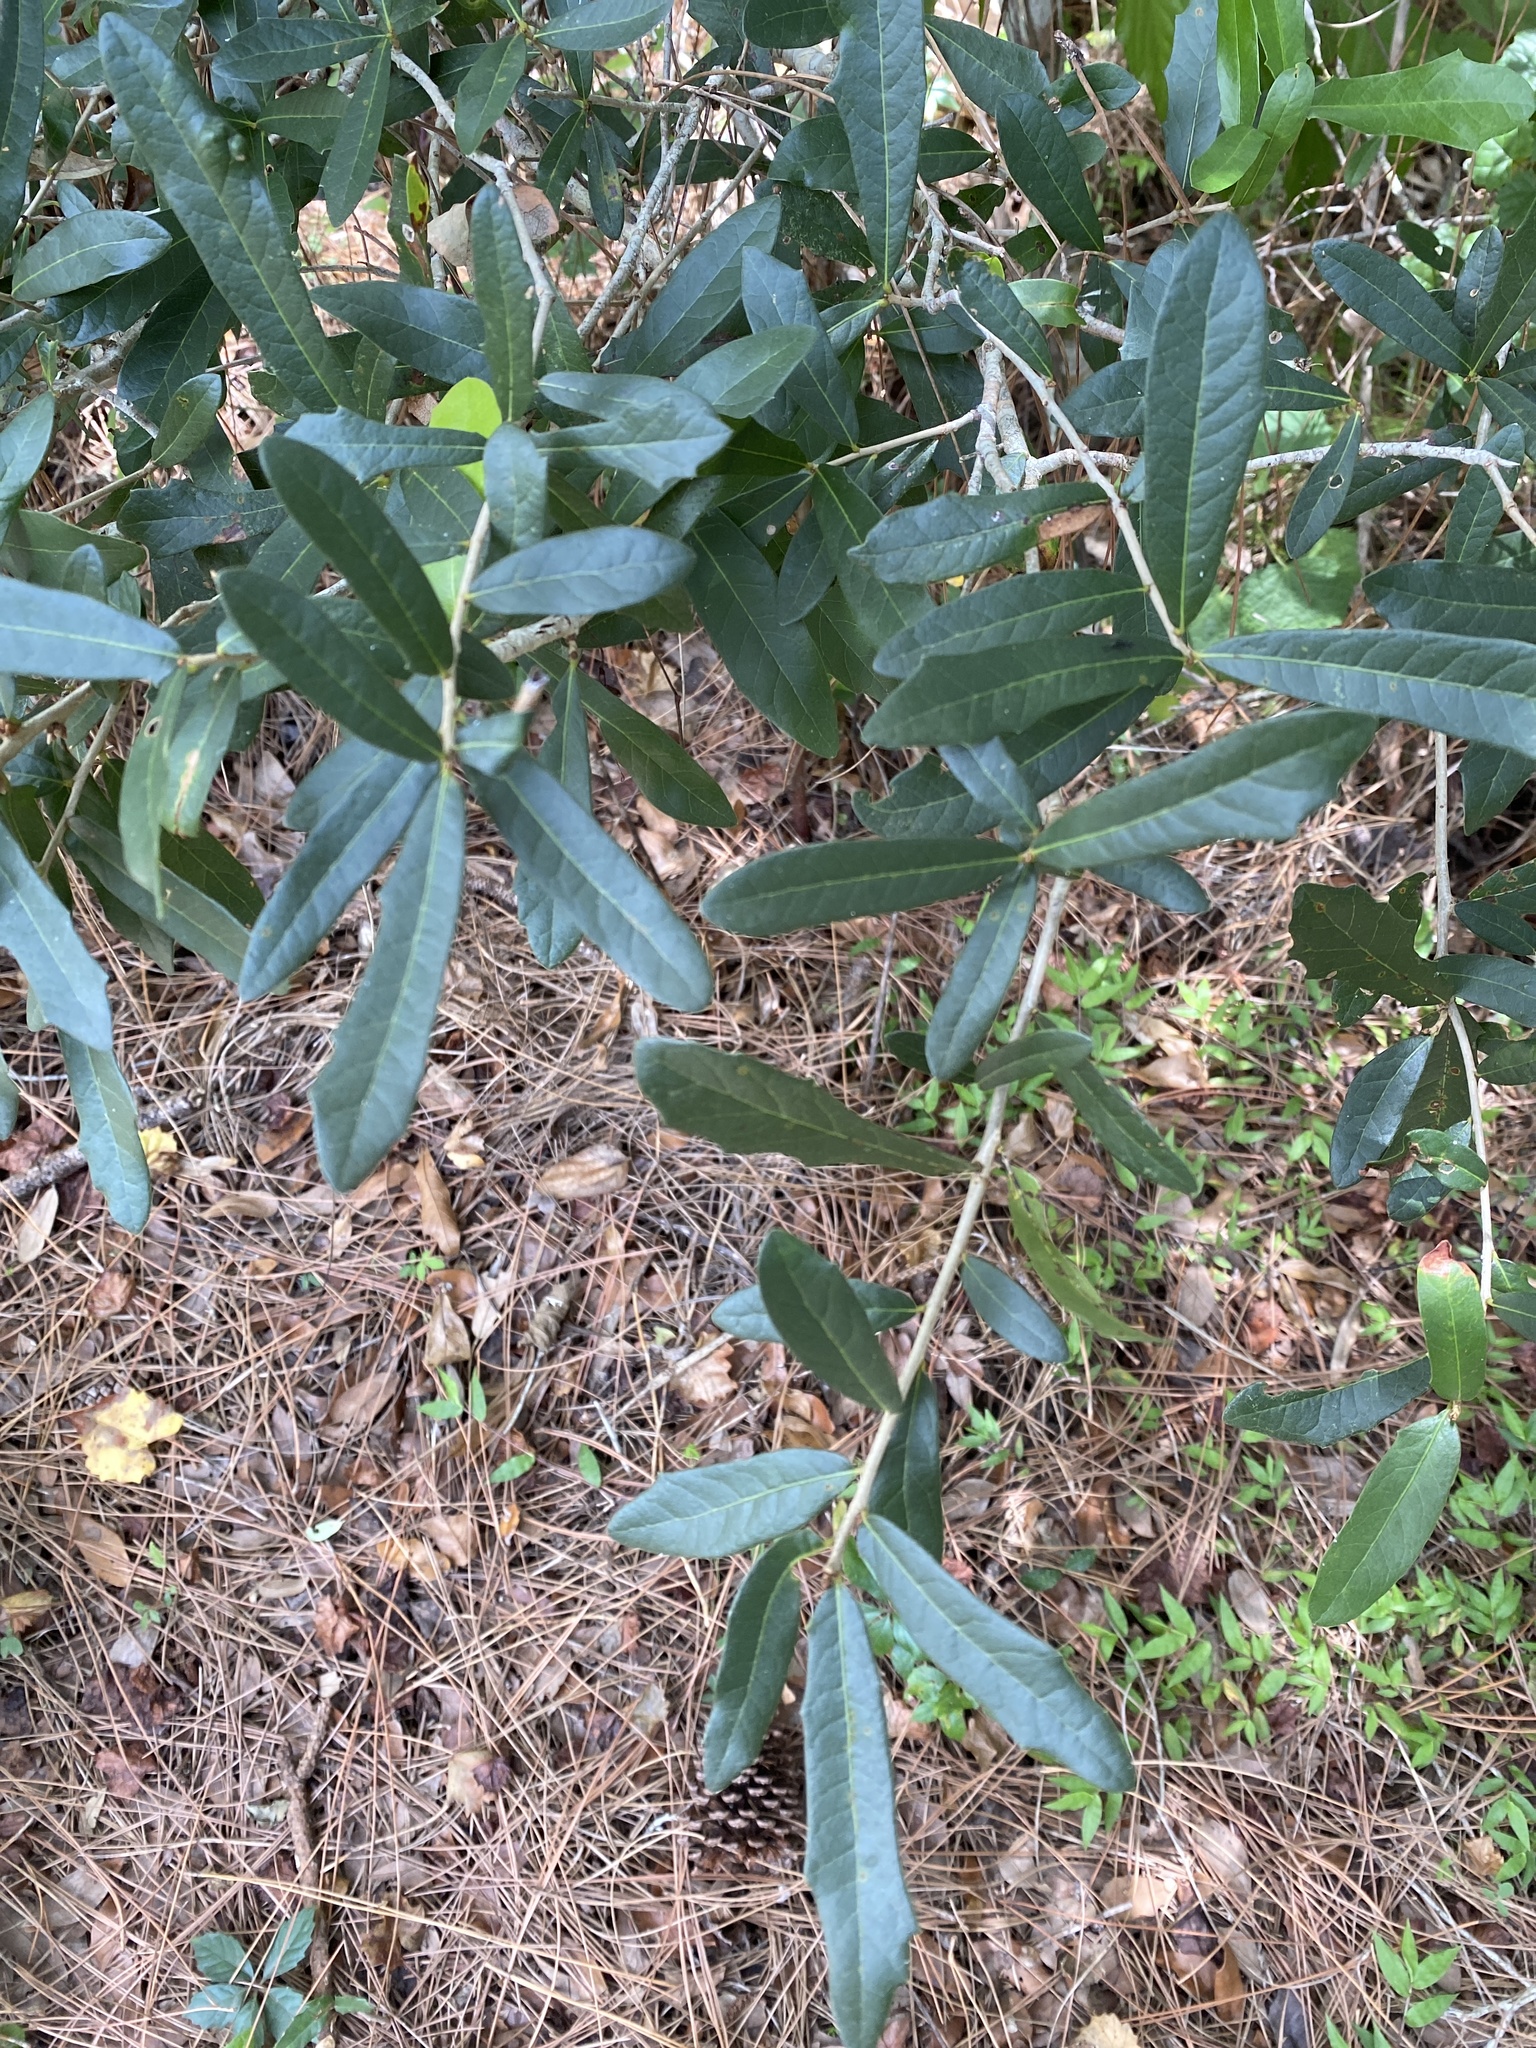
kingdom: Plantae
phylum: Tracheophyta
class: Magnoliopsida
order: Fagales
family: Fagaceae
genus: Quercus
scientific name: Quercus virginiana
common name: Southern live oak
